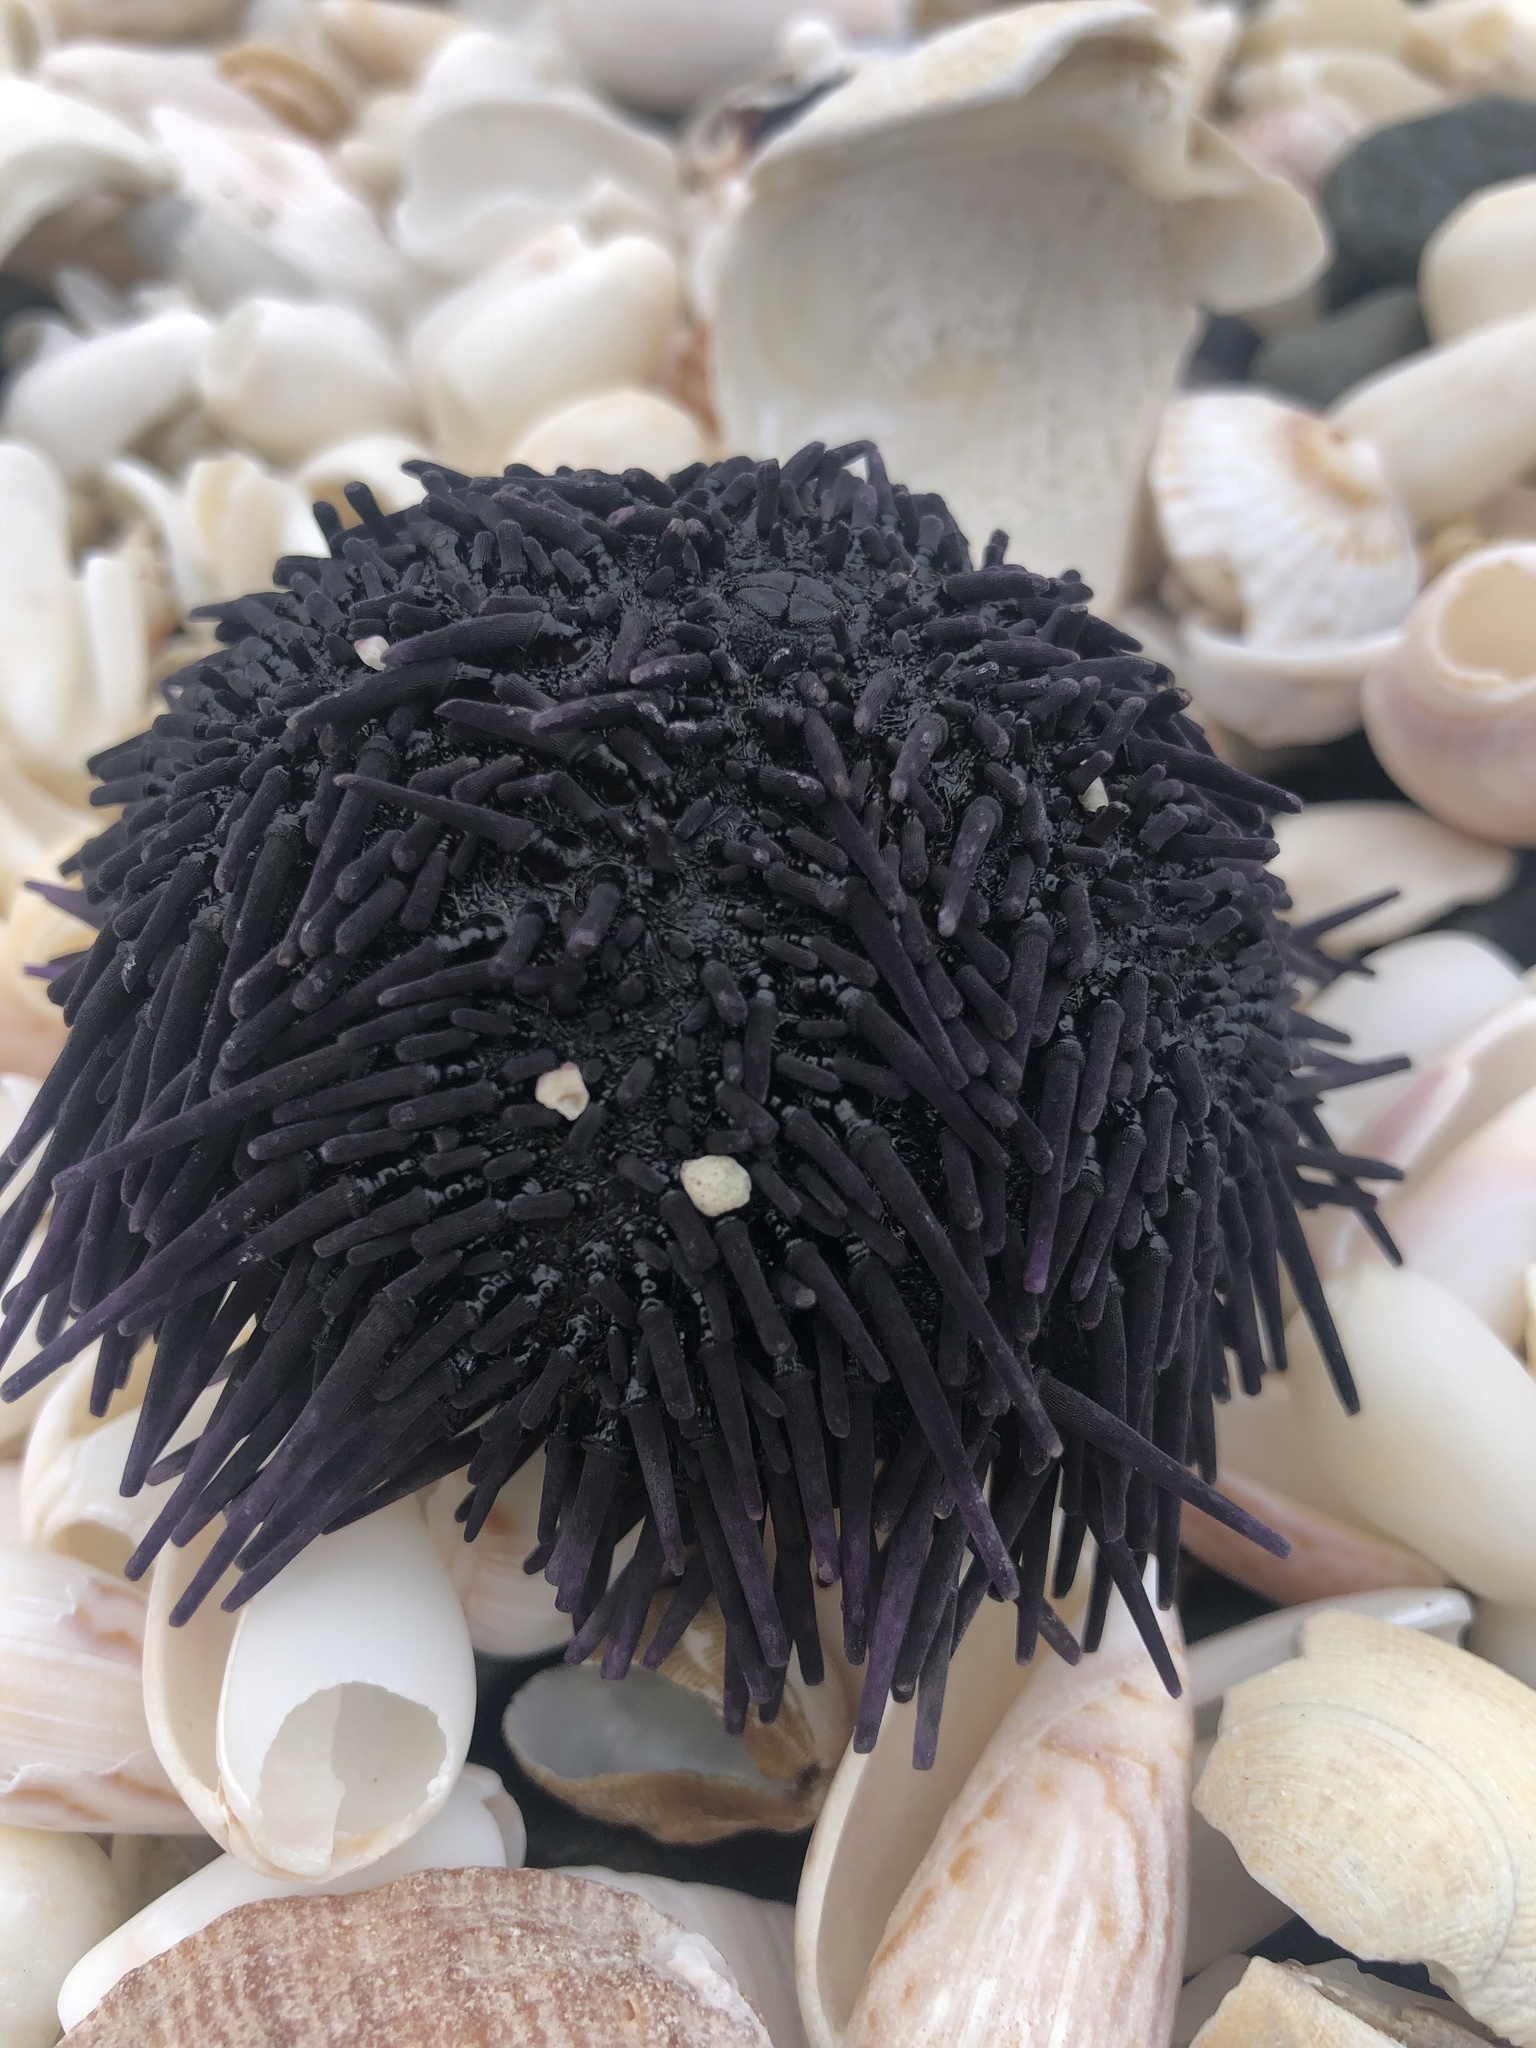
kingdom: Animalia
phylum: Echinodermata
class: Echinoidea
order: Arbacioida
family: Arbaciidae
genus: Tetrapygus
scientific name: Tetrapygus niger
